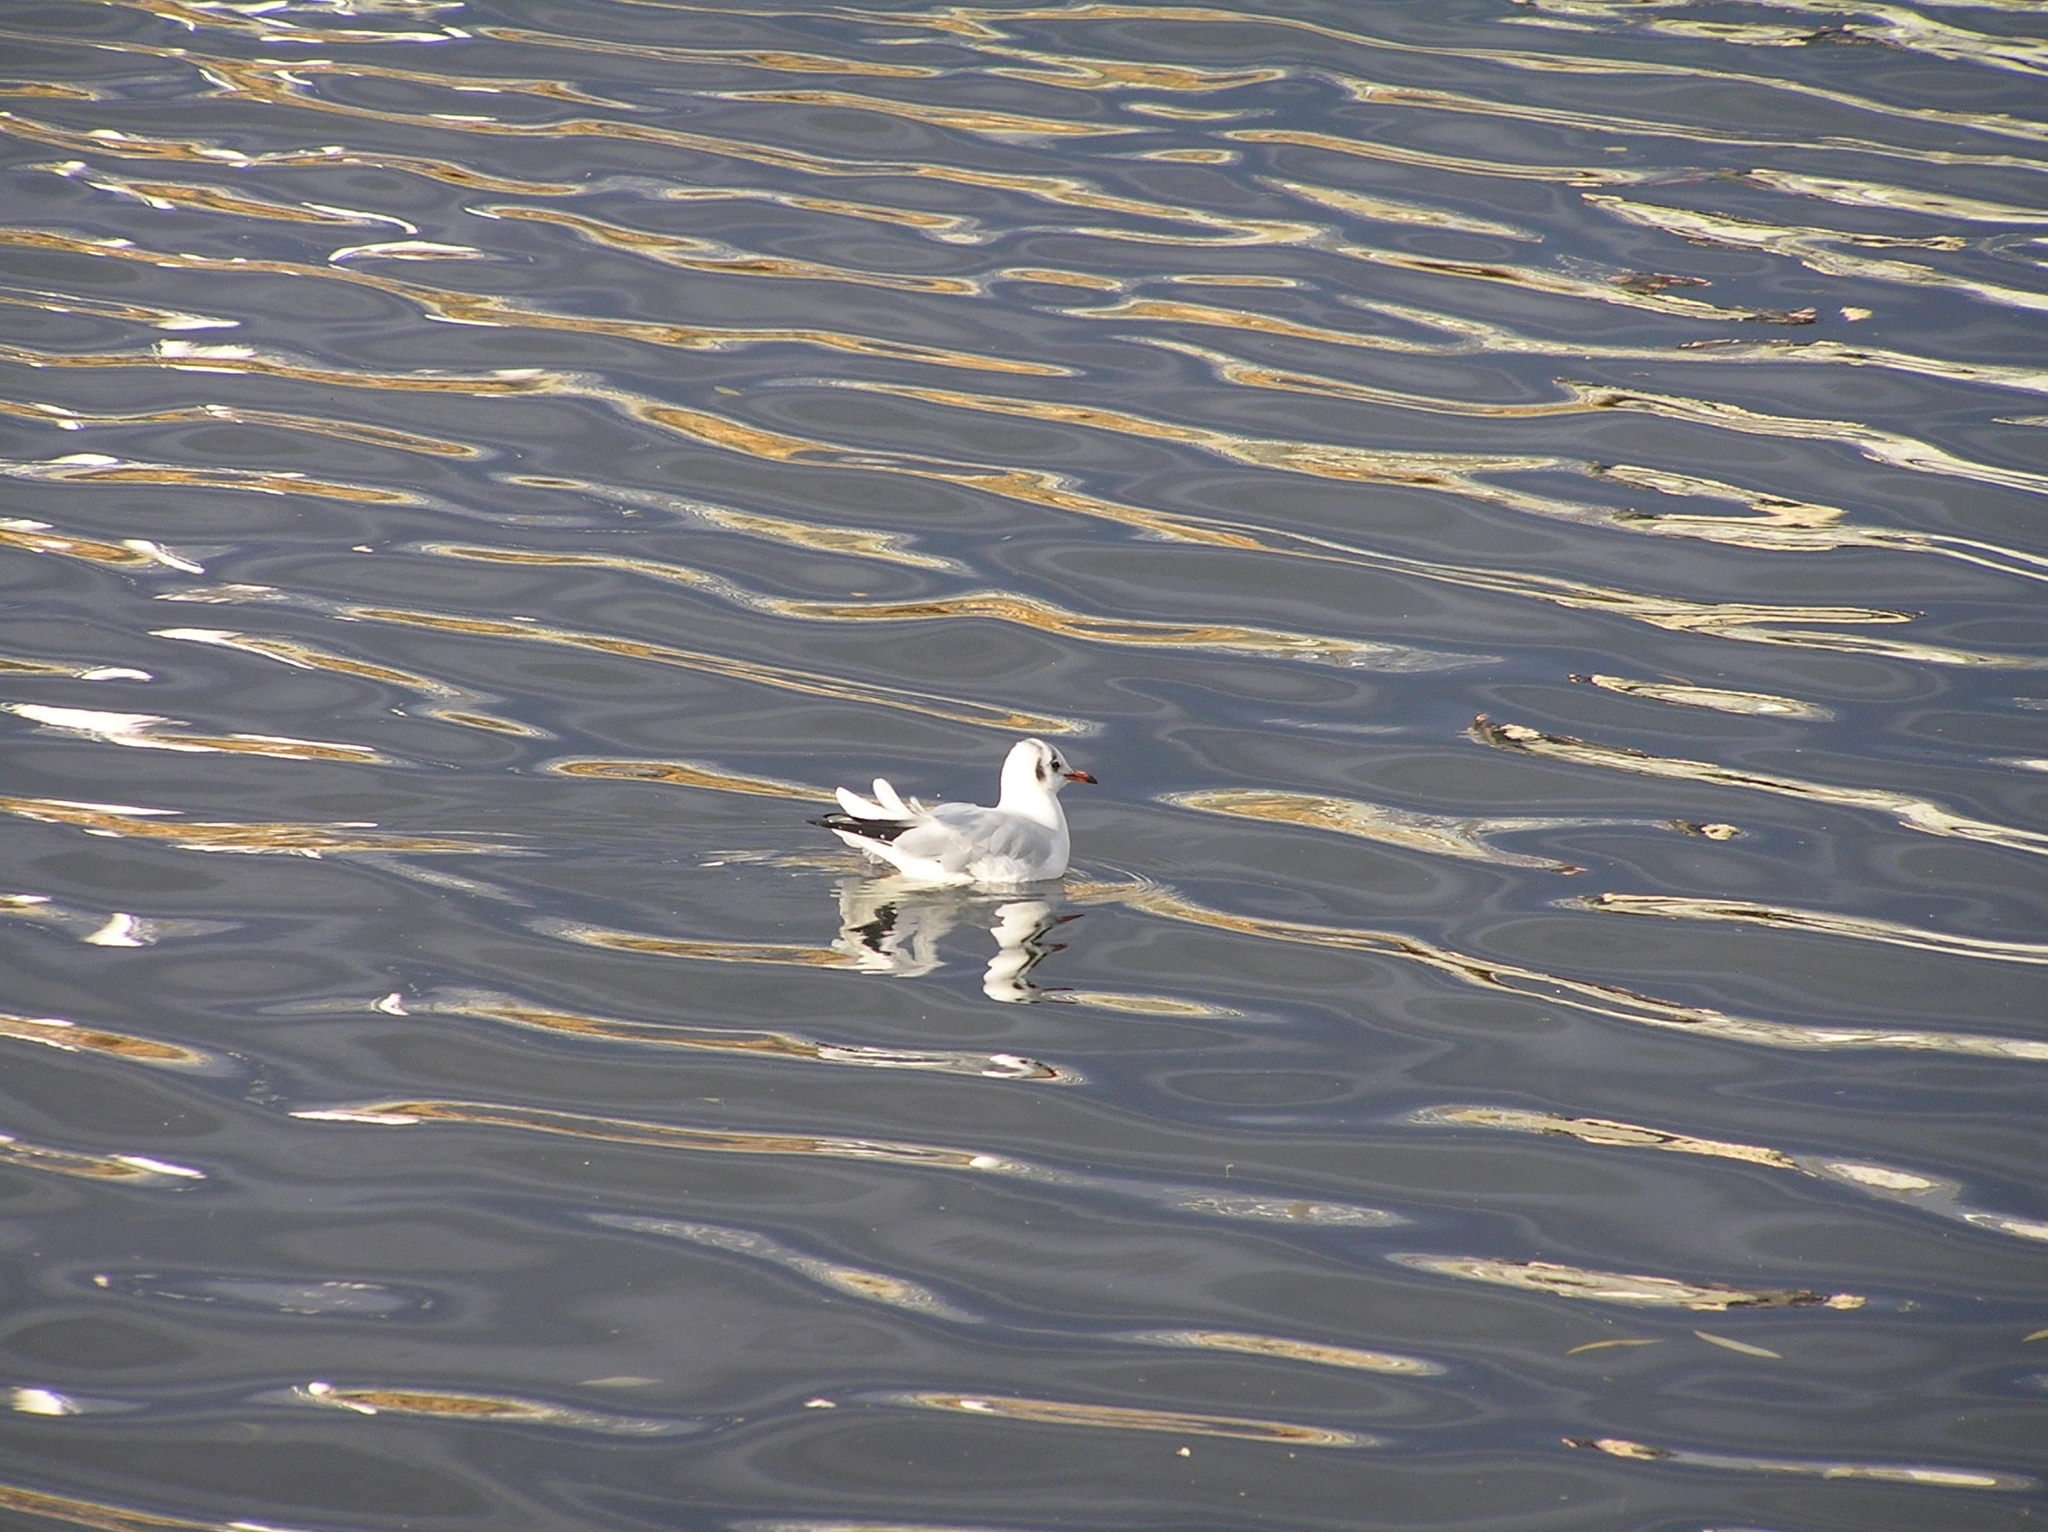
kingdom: Animalia
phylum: Chordata
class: Aves
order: Charadriiformes
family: Laridae
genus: Chroicocephalus
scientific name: Chroicocephalus ridibundus
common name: Black-headed gull
